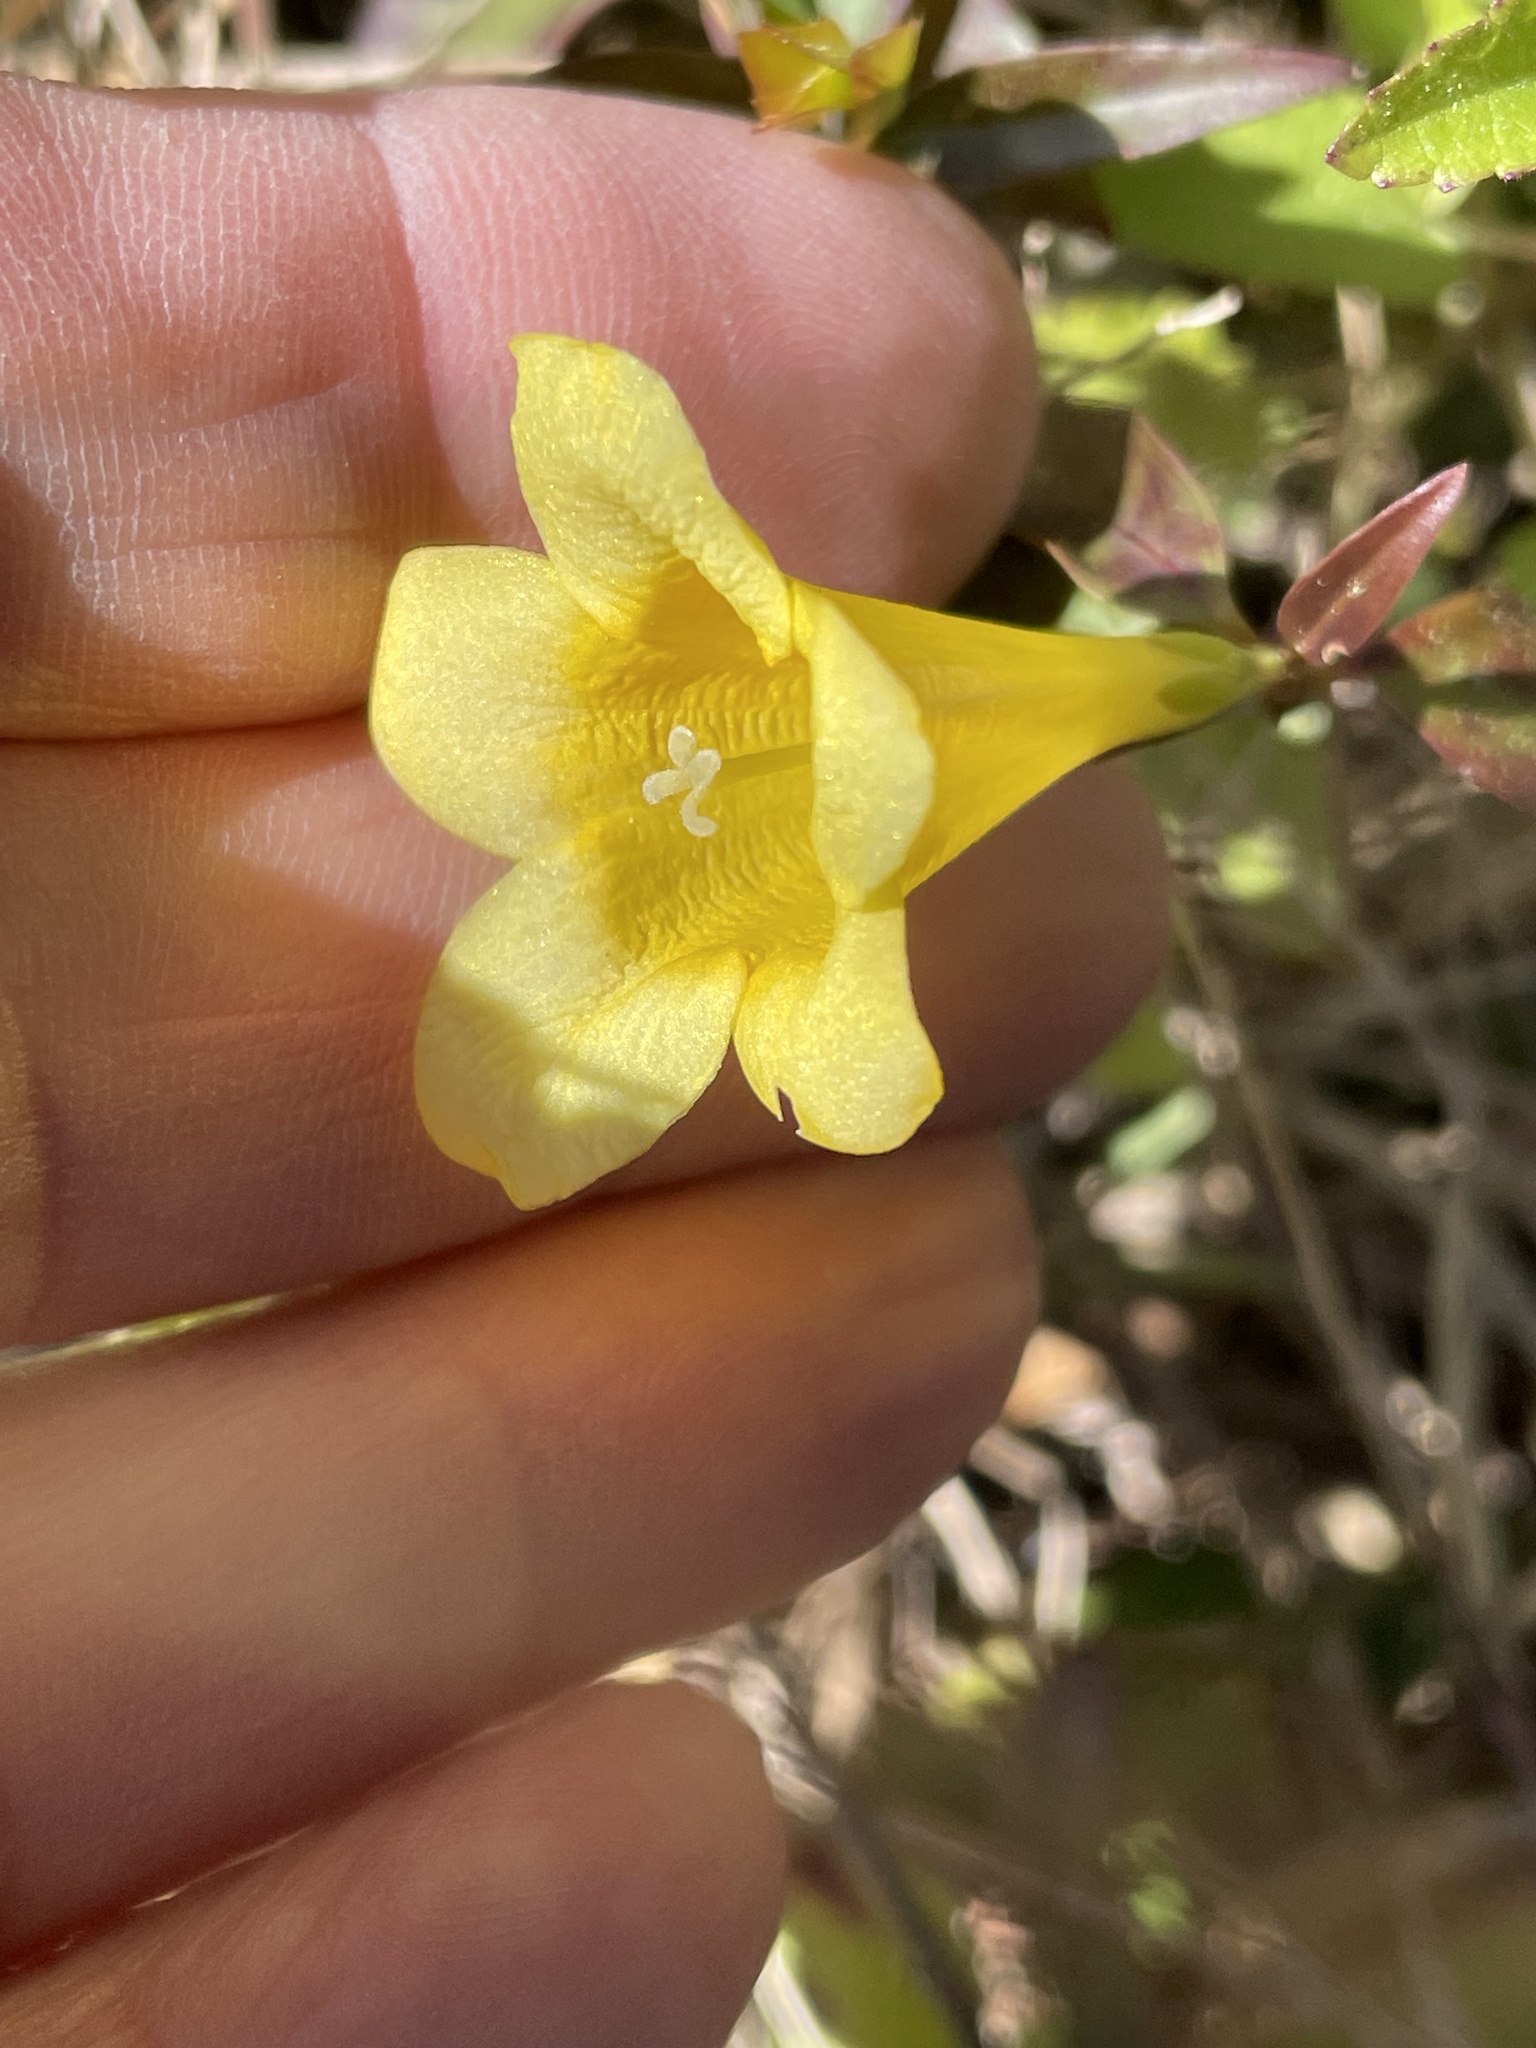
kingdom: Plantae
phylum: Tracheophyta
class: Magnoliopsida
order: Gentianales
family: Gelsemiaceae
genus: Gelsemium
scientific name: Gelsemium sempervirens
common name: Carolina-jasmine
